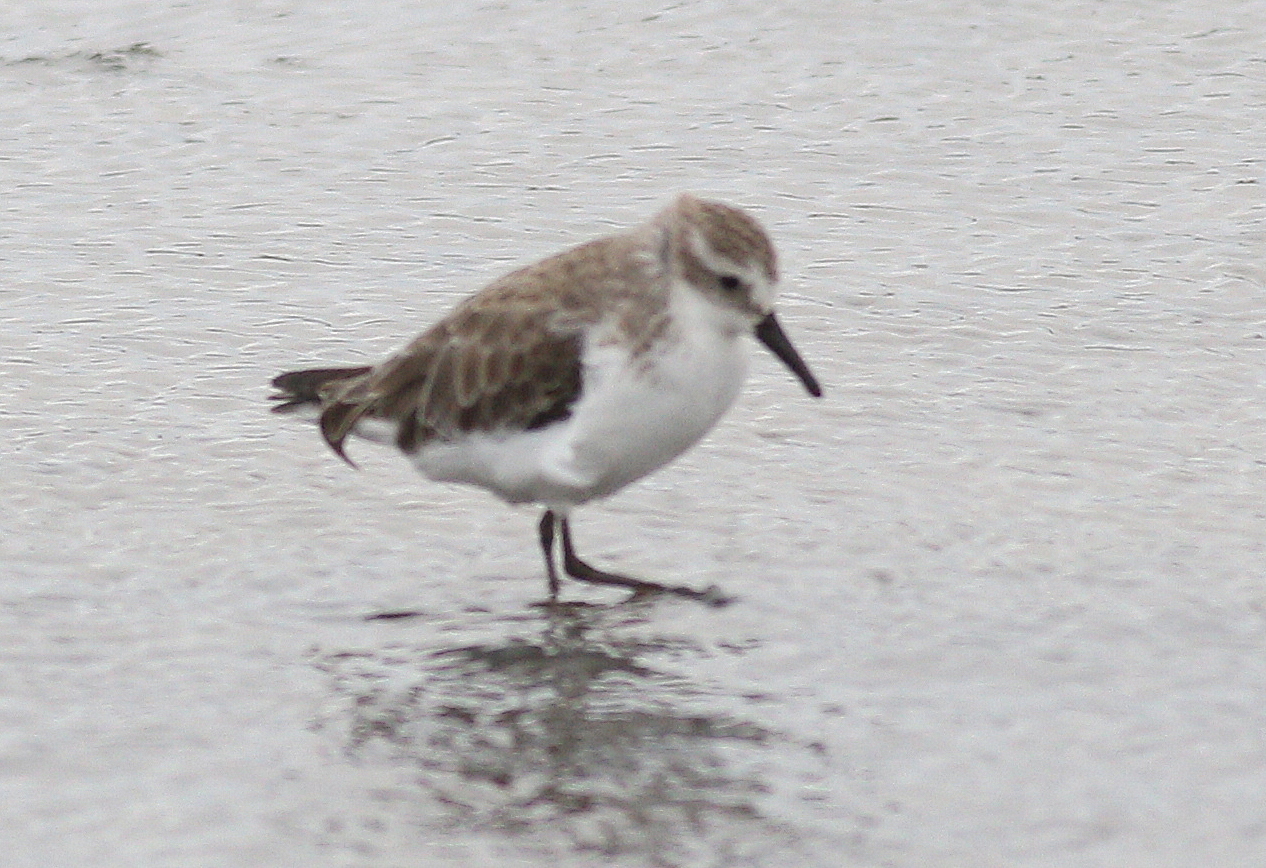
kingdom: Animalia
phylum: Chordata
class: Aves
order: Charadriiformes
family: Scolopacidae
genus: Calidris
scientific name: Calidris pusilla
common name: Semipalmated sandpiper
